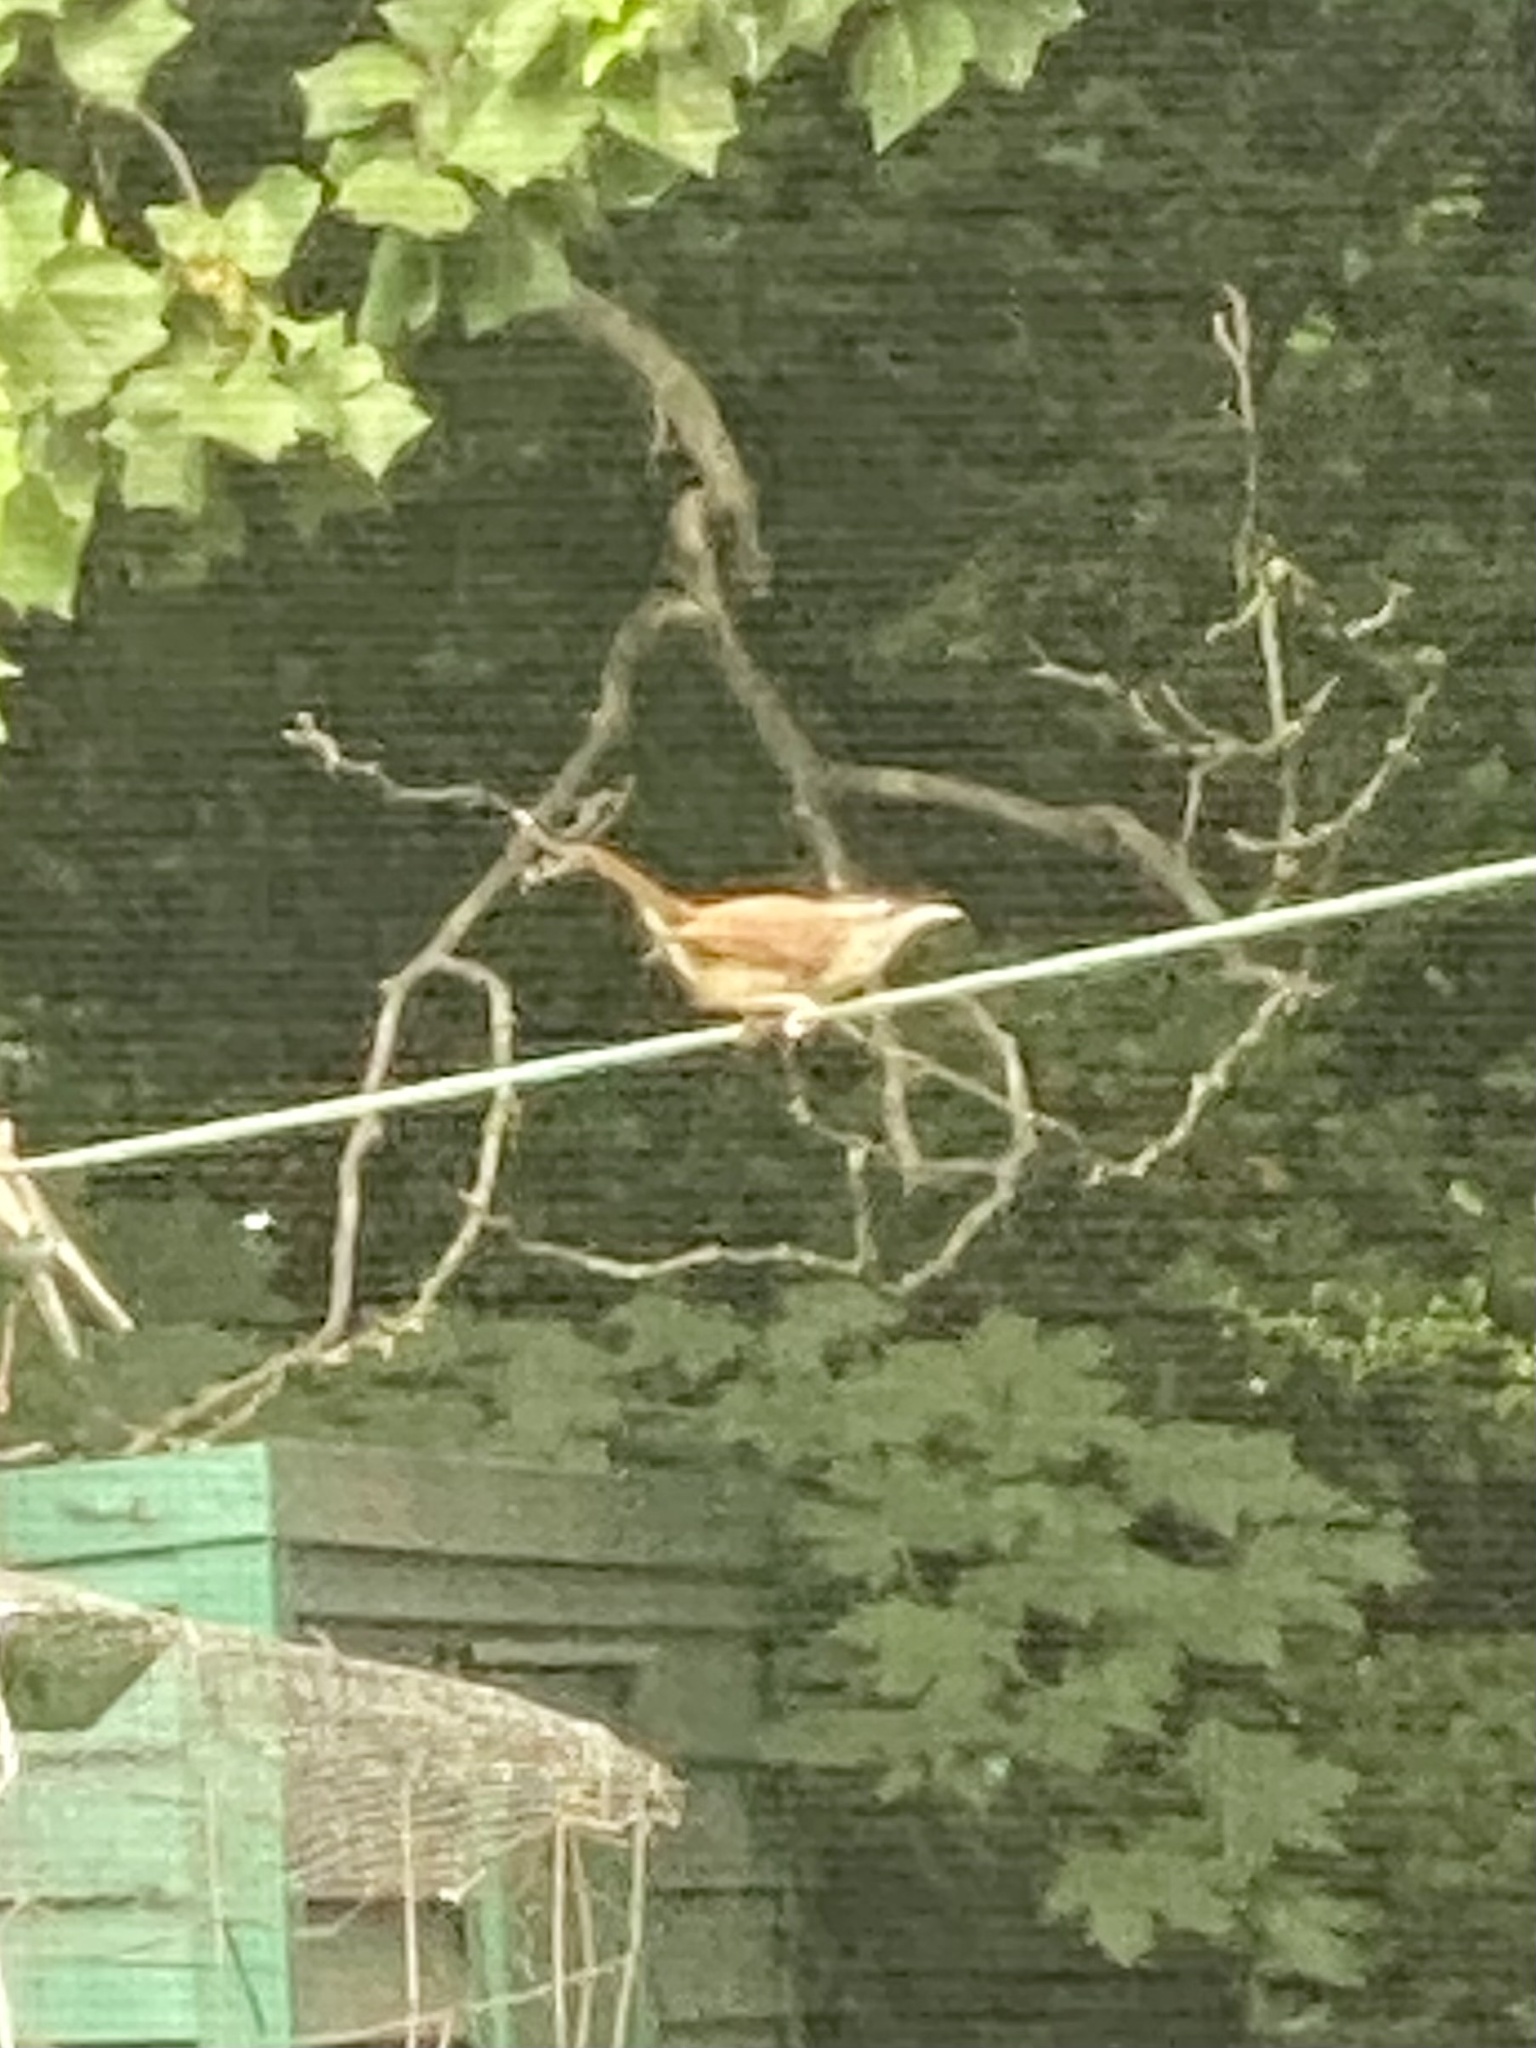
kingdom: Animalia
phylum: Chordata
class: Aves
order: Passeriformes
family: Troglodytidae
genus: Thryothorus
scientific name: Thryothorus ludovicianus
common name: Carolina wren
